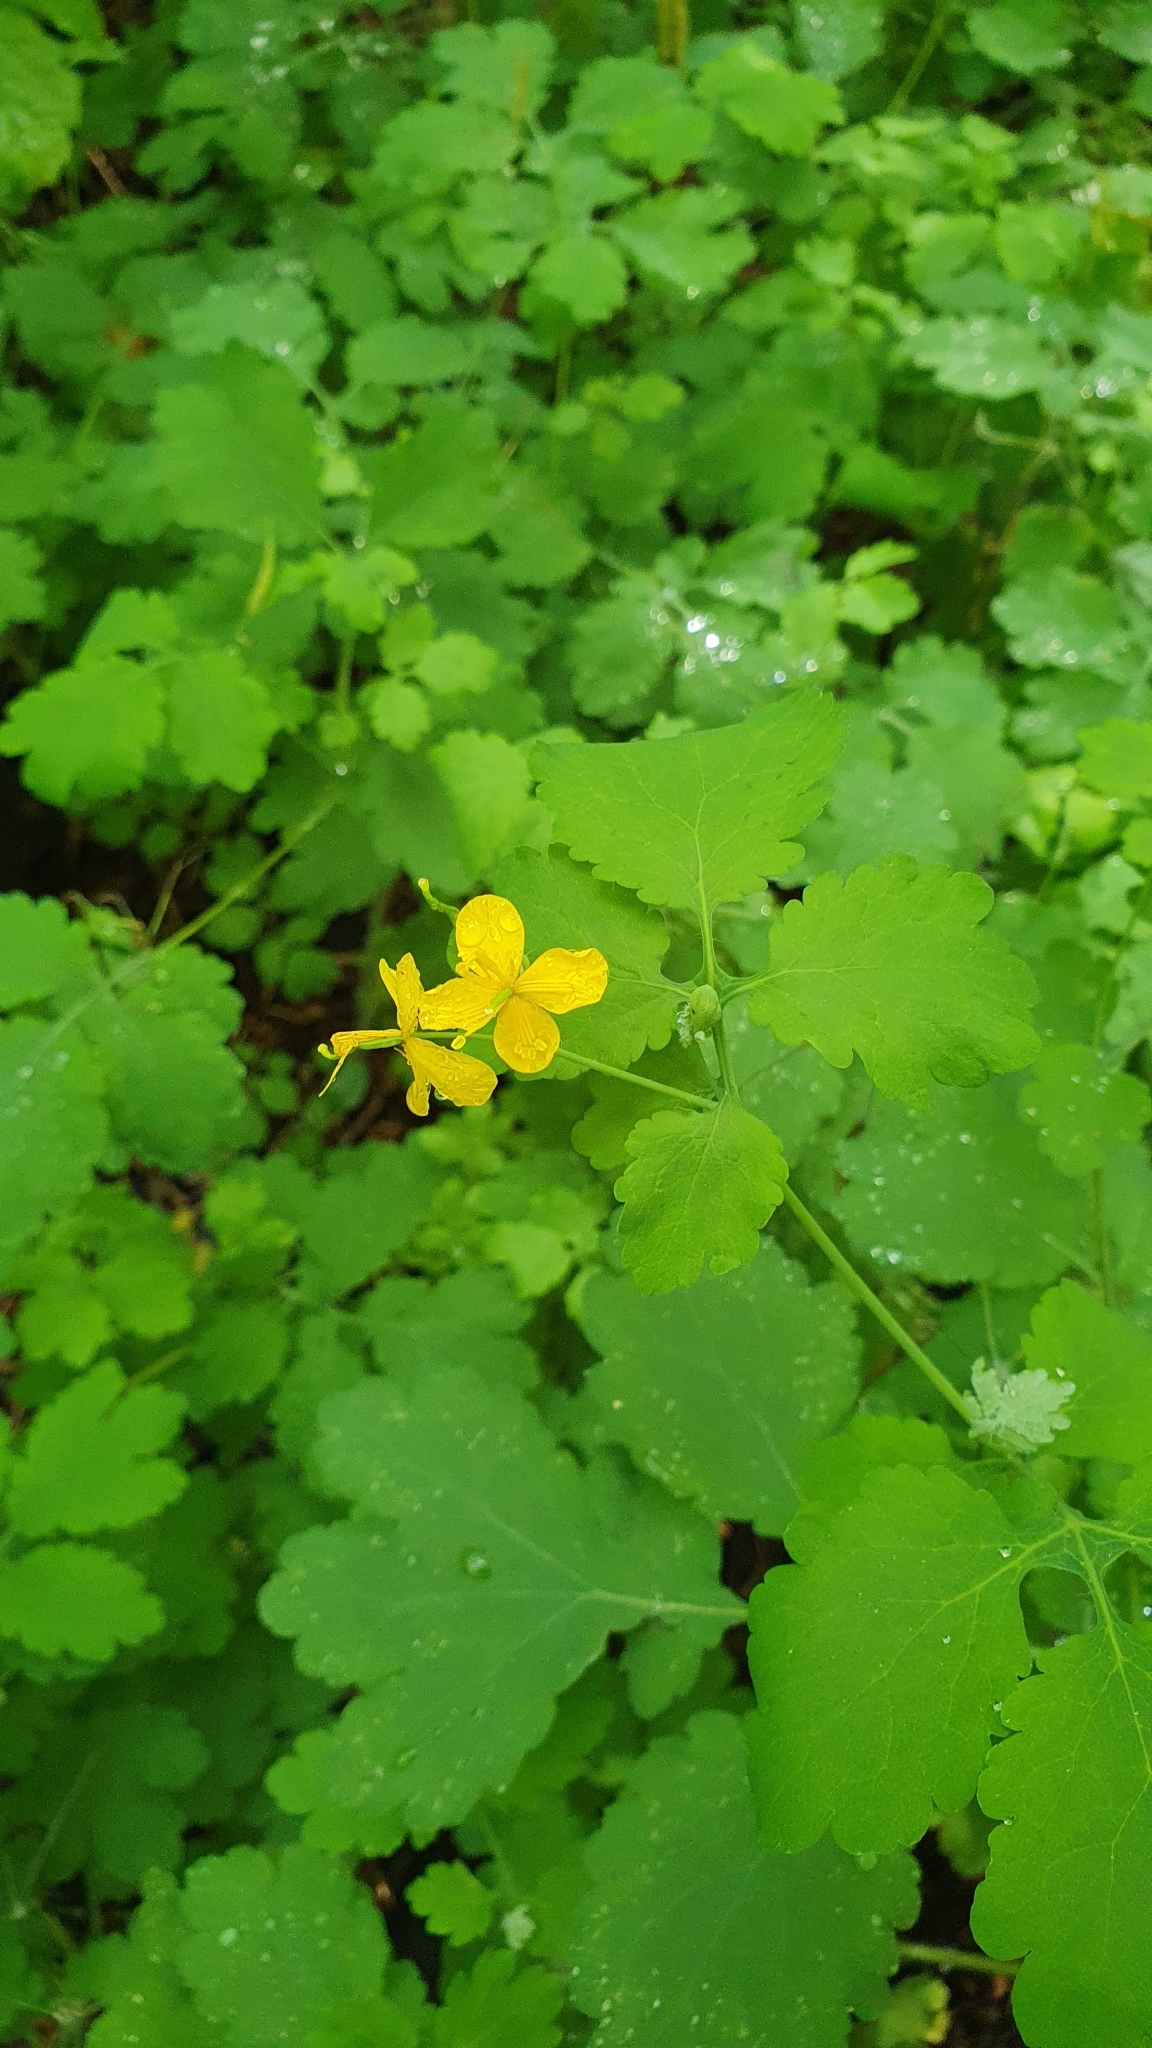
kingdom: Plantae
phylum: Tracheophyta
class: Magnoliopsida
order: Ranunculales
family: Papaveraceae
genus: Chelidonium
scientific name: Chelidonium majus
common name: Greater celandine
